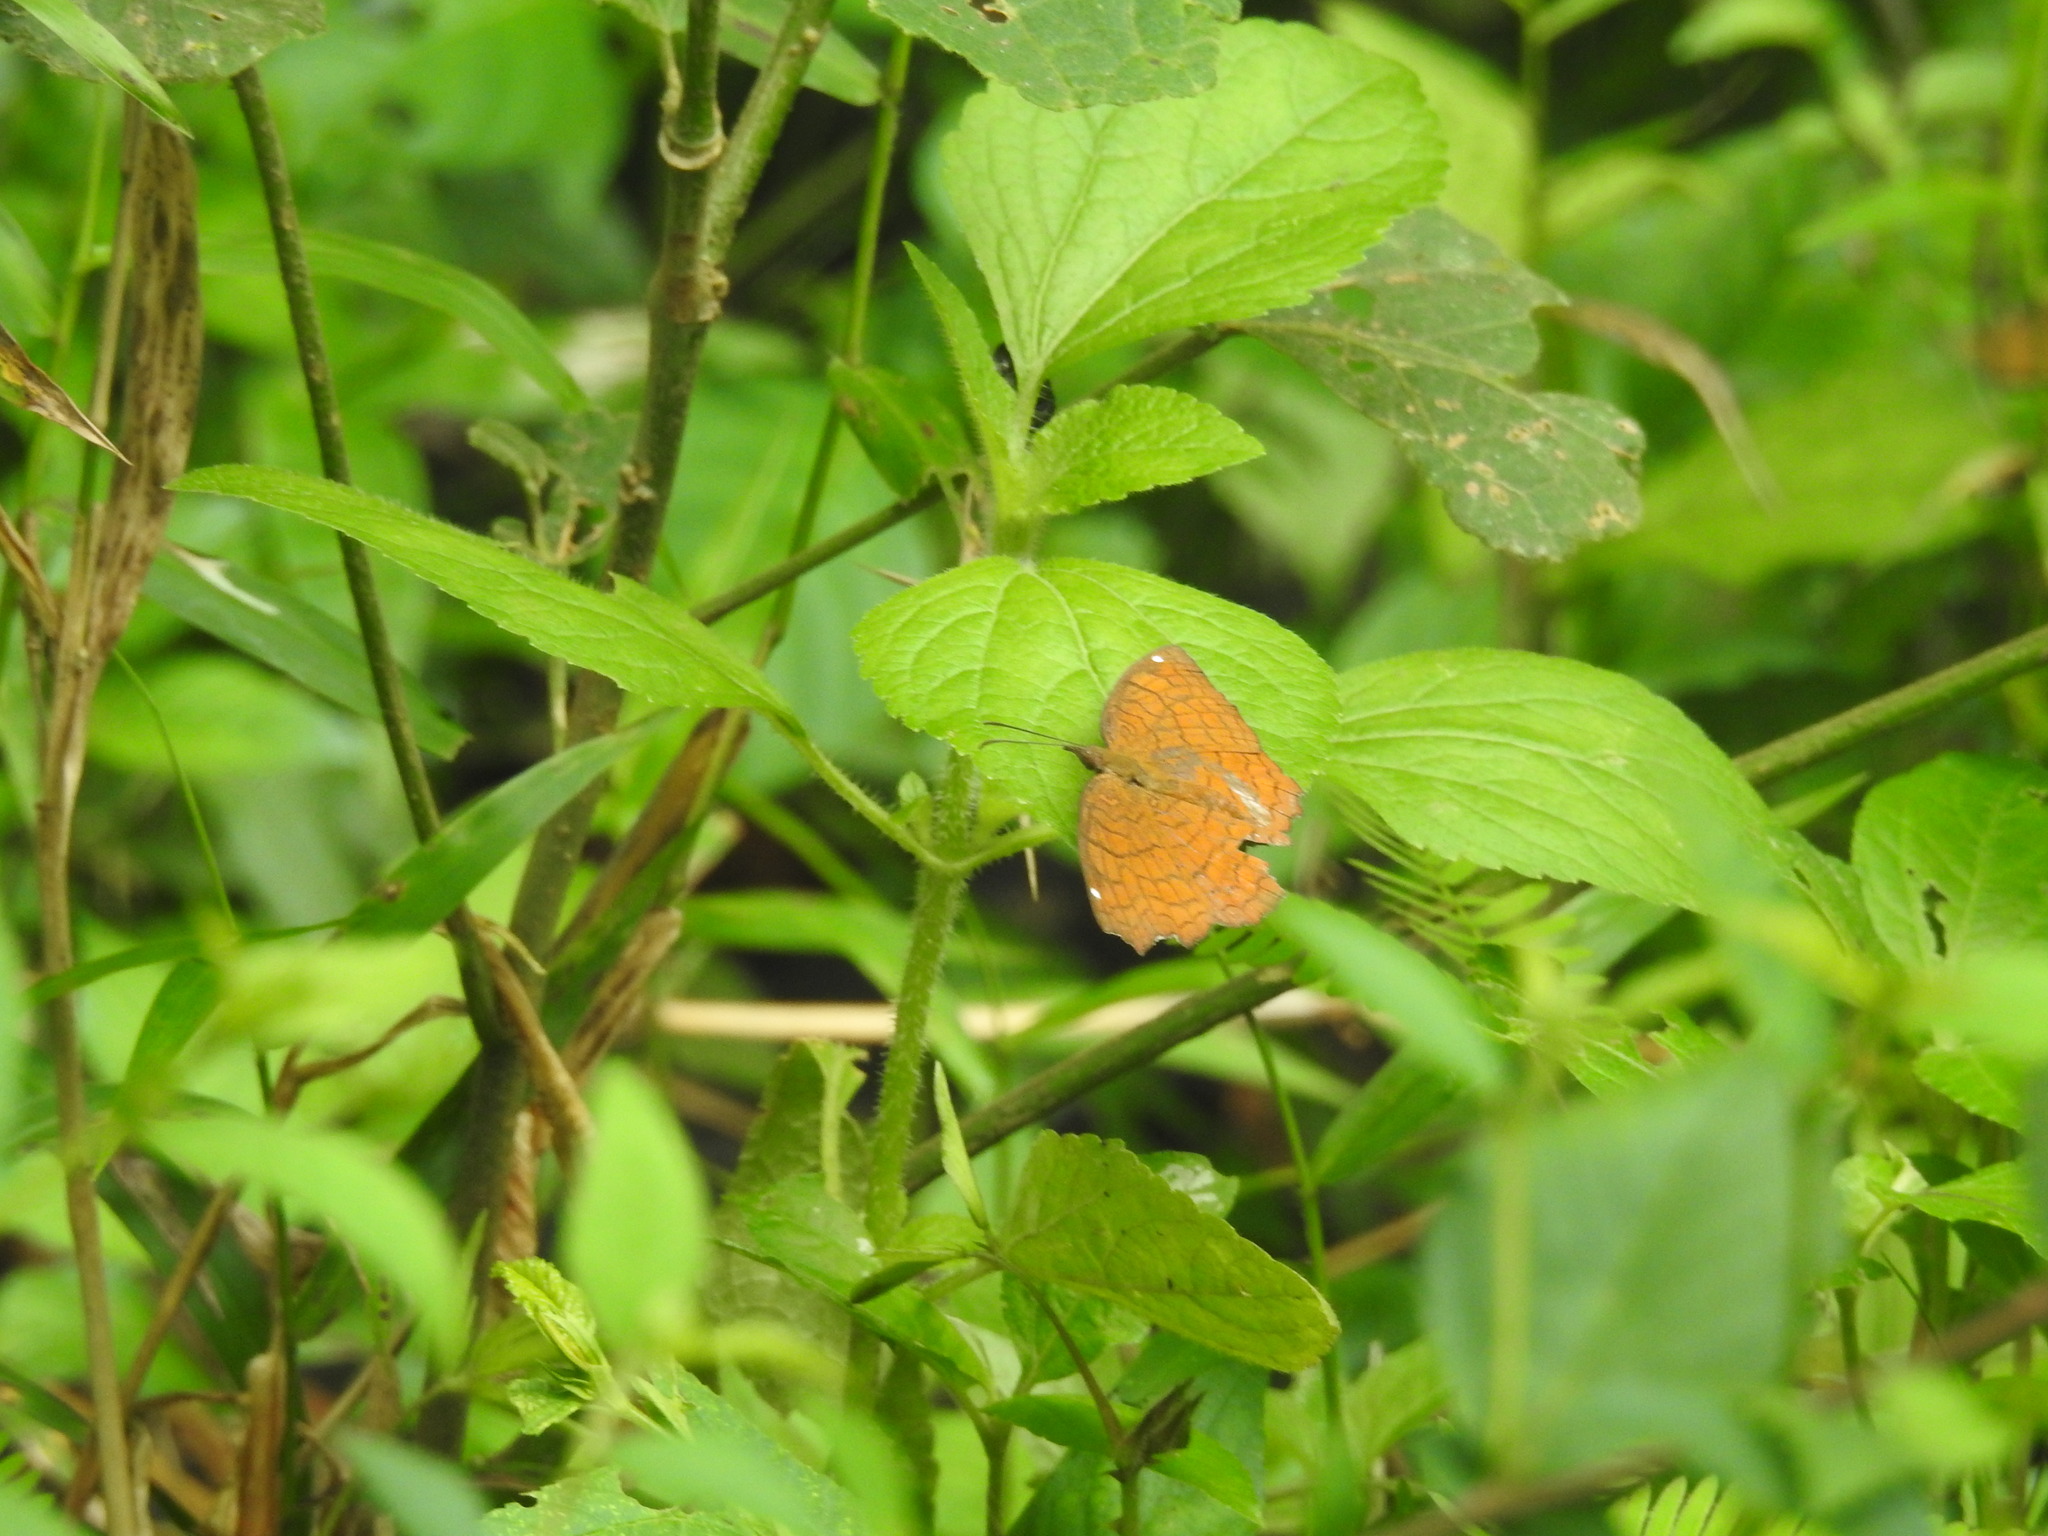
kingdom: Animalia
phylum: Arthropoda
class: Insecta
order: Lepidoptera
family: Nymphalidae
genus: Ariadne
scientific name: Ariadne ariadne
